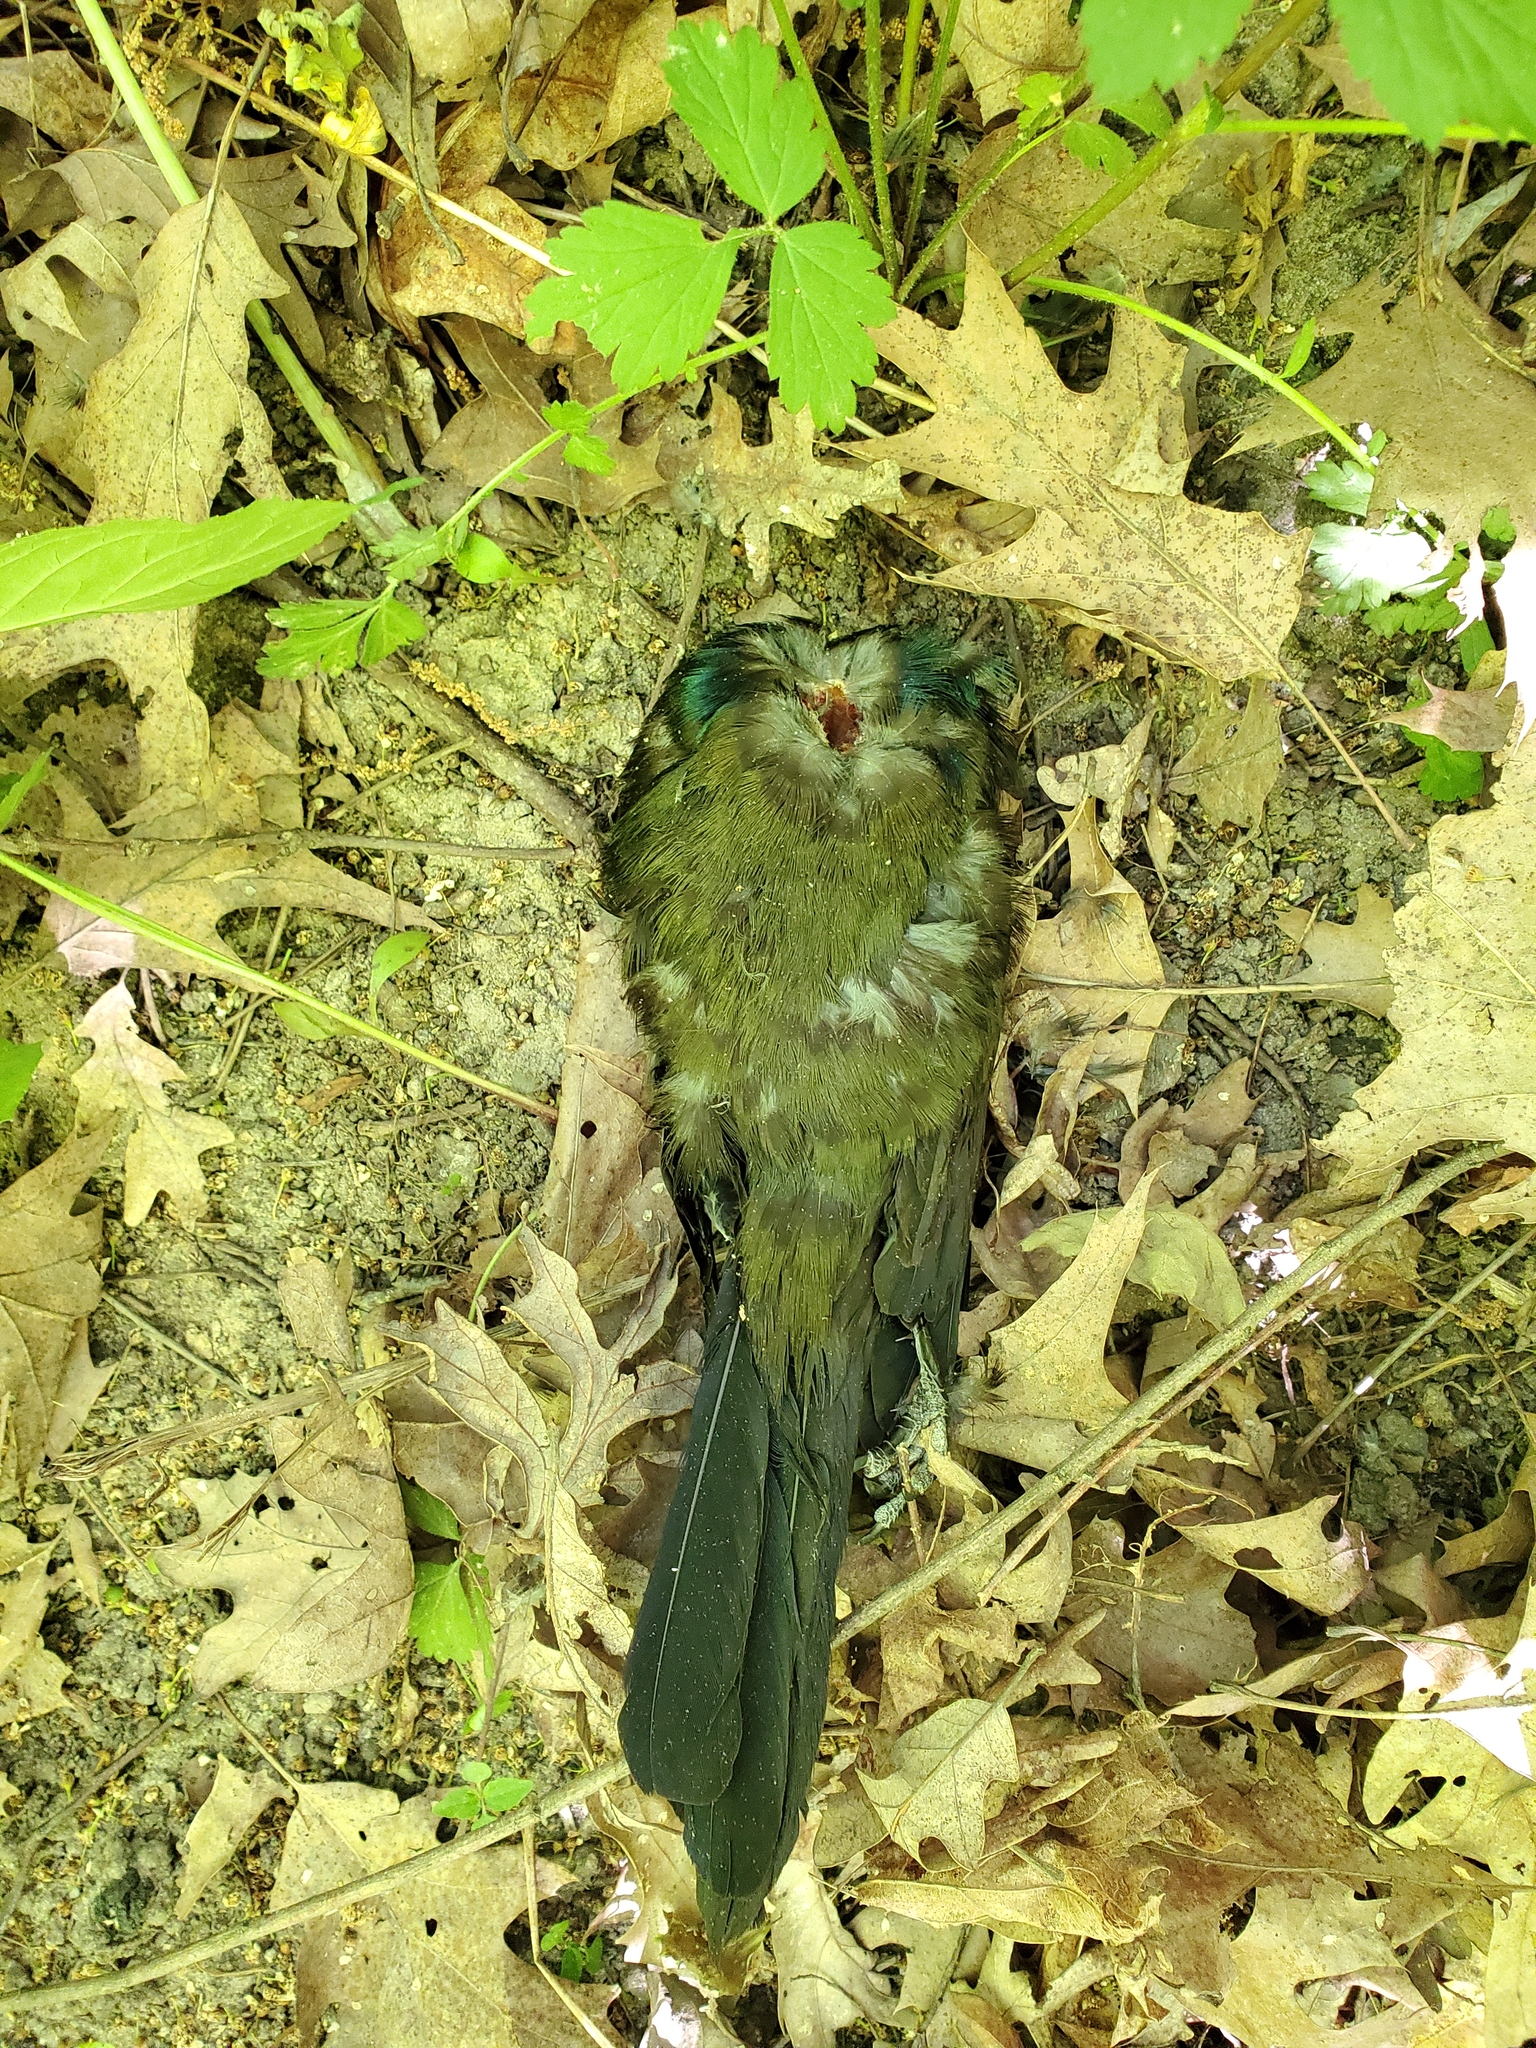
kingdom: Animalia
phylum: Chordata
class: Aves
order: Passeriformes
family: Icteridae
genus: Quiscalus
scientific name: Quiscalus quiscula
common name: Common grackle
